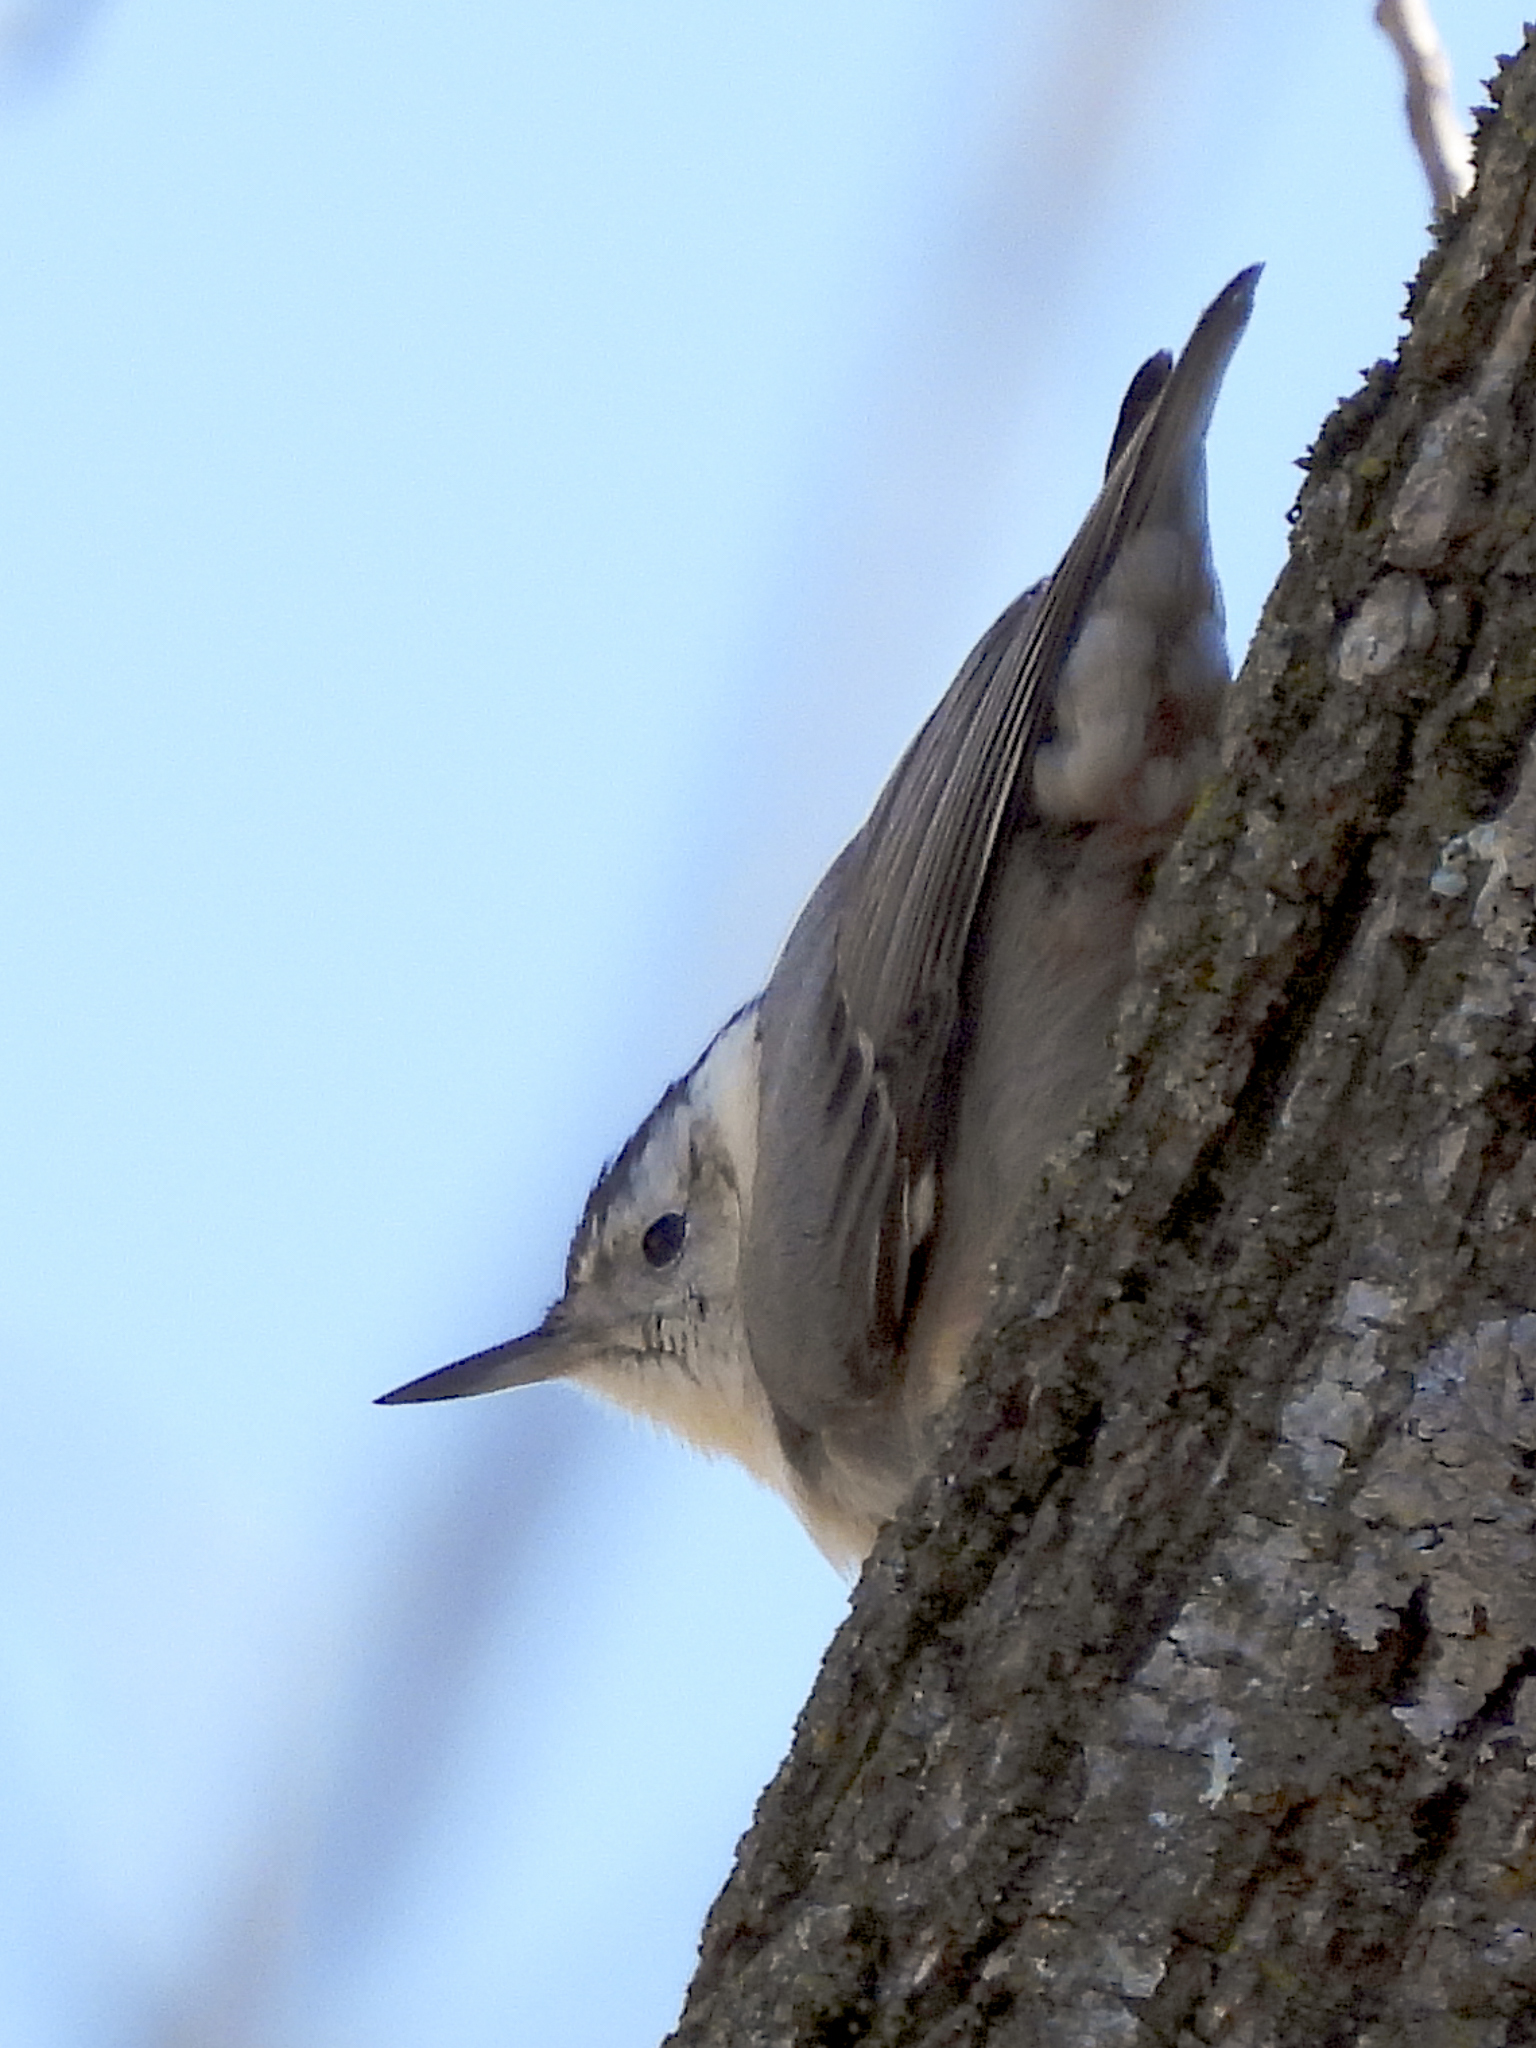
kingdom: Animalia
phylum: Chordata
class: Aves
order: Passeriformes
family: Sittidae
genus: Sitta
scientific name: Sitta carolinensis
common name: White-breasted nuthatch
